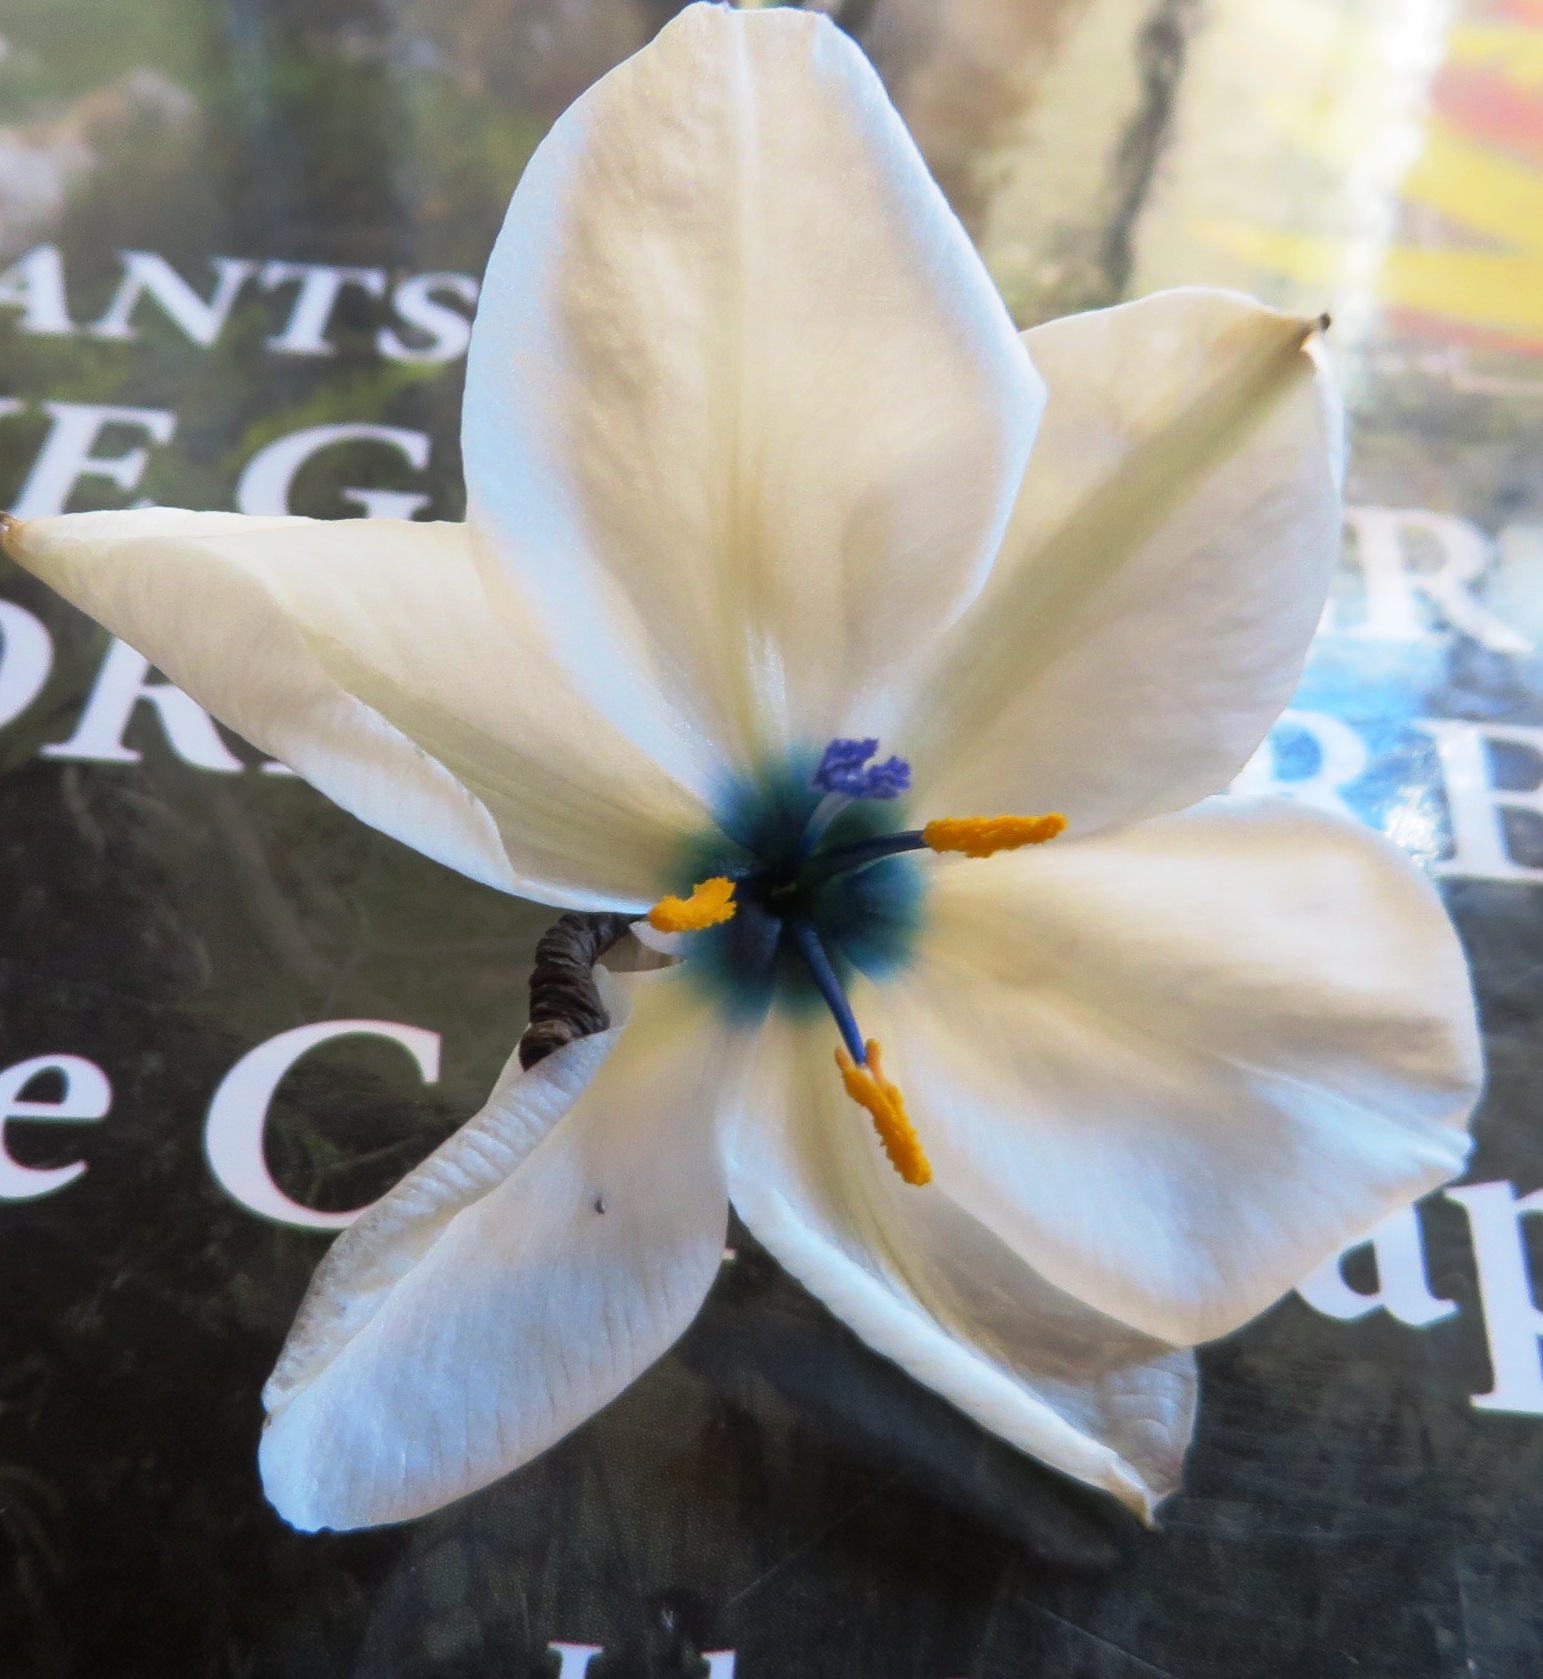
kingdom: Plantae
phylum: Tracheophyta
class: Liliopsida
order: Asparagales
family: Iridaceae
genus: Aristea
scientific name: Aristea cantharophila
